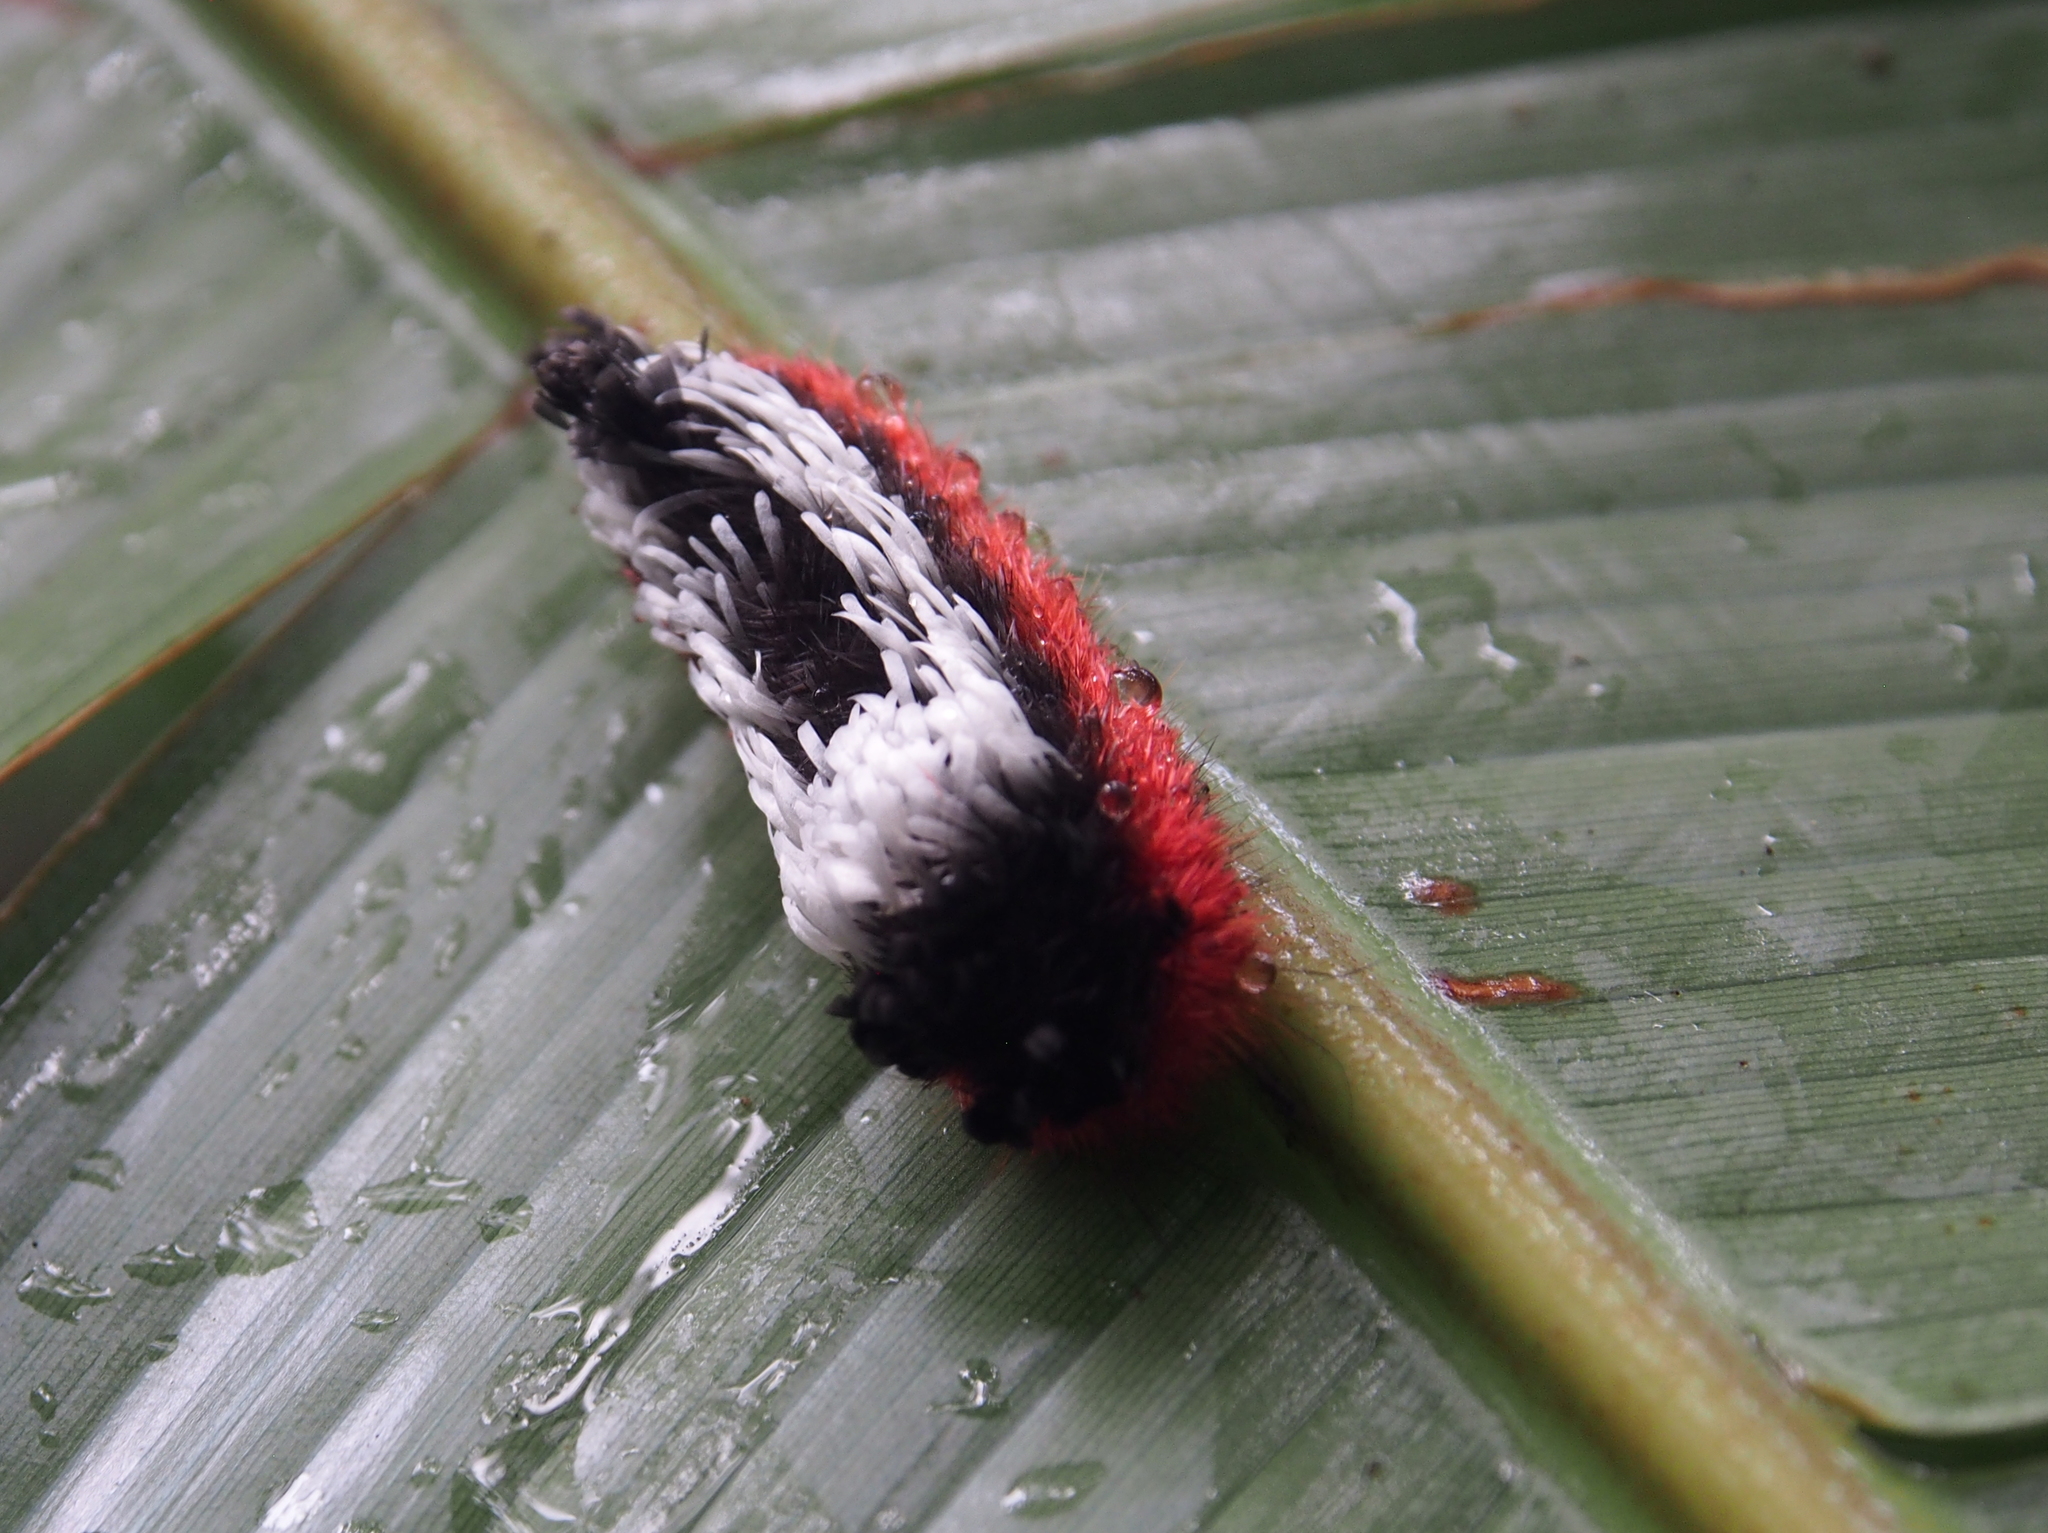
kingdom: Animalia
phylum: Arthropoda
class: Insecta
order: Lepidoptera
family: Bombycidae
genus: Prothysana
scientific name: Prothysana
